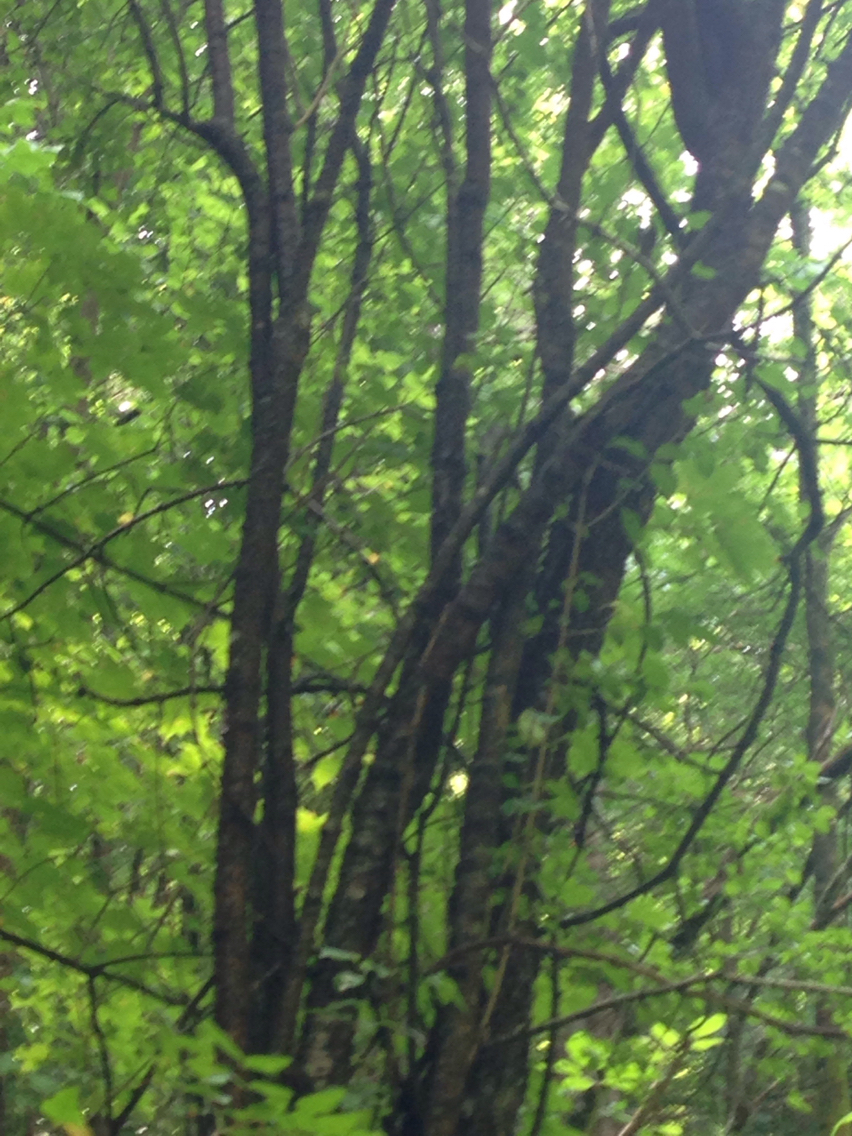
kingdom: Plantae
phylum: Tracheophyta
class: Magnoliopsida
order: Rosales
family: Rhamnaceae
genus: Rhamnus
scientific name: Rhamnus cathartica
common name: Common buckthorn
